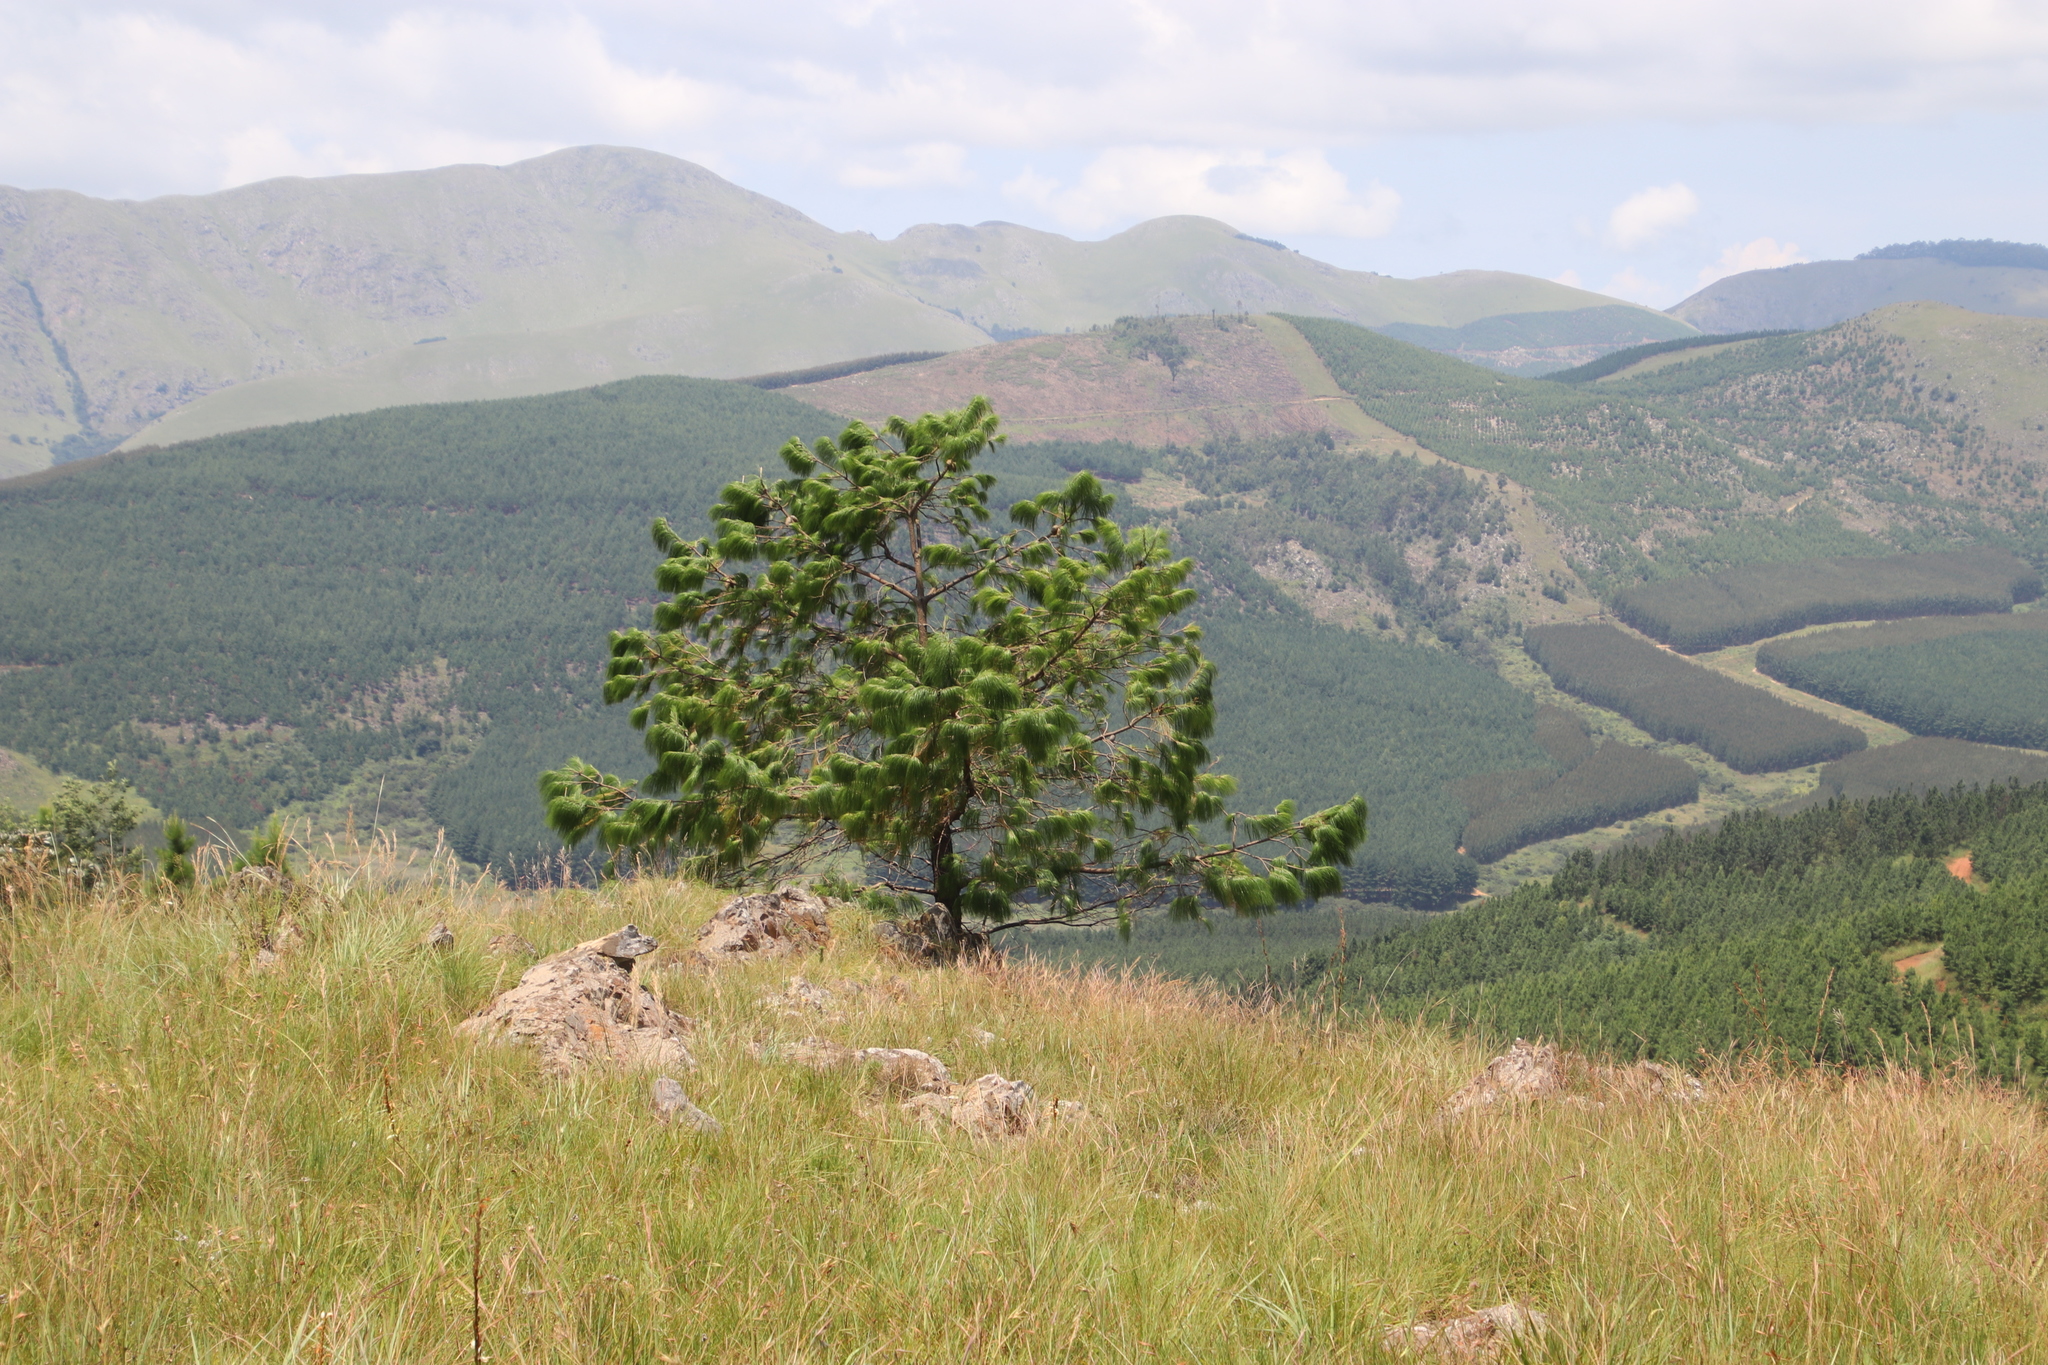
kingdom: Plantae
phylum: Tracheophyta
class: Pinopsida
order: Pinales
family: Pinaceae
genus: Pinus
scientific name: Pinus patula
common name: Mexican weeping pine
